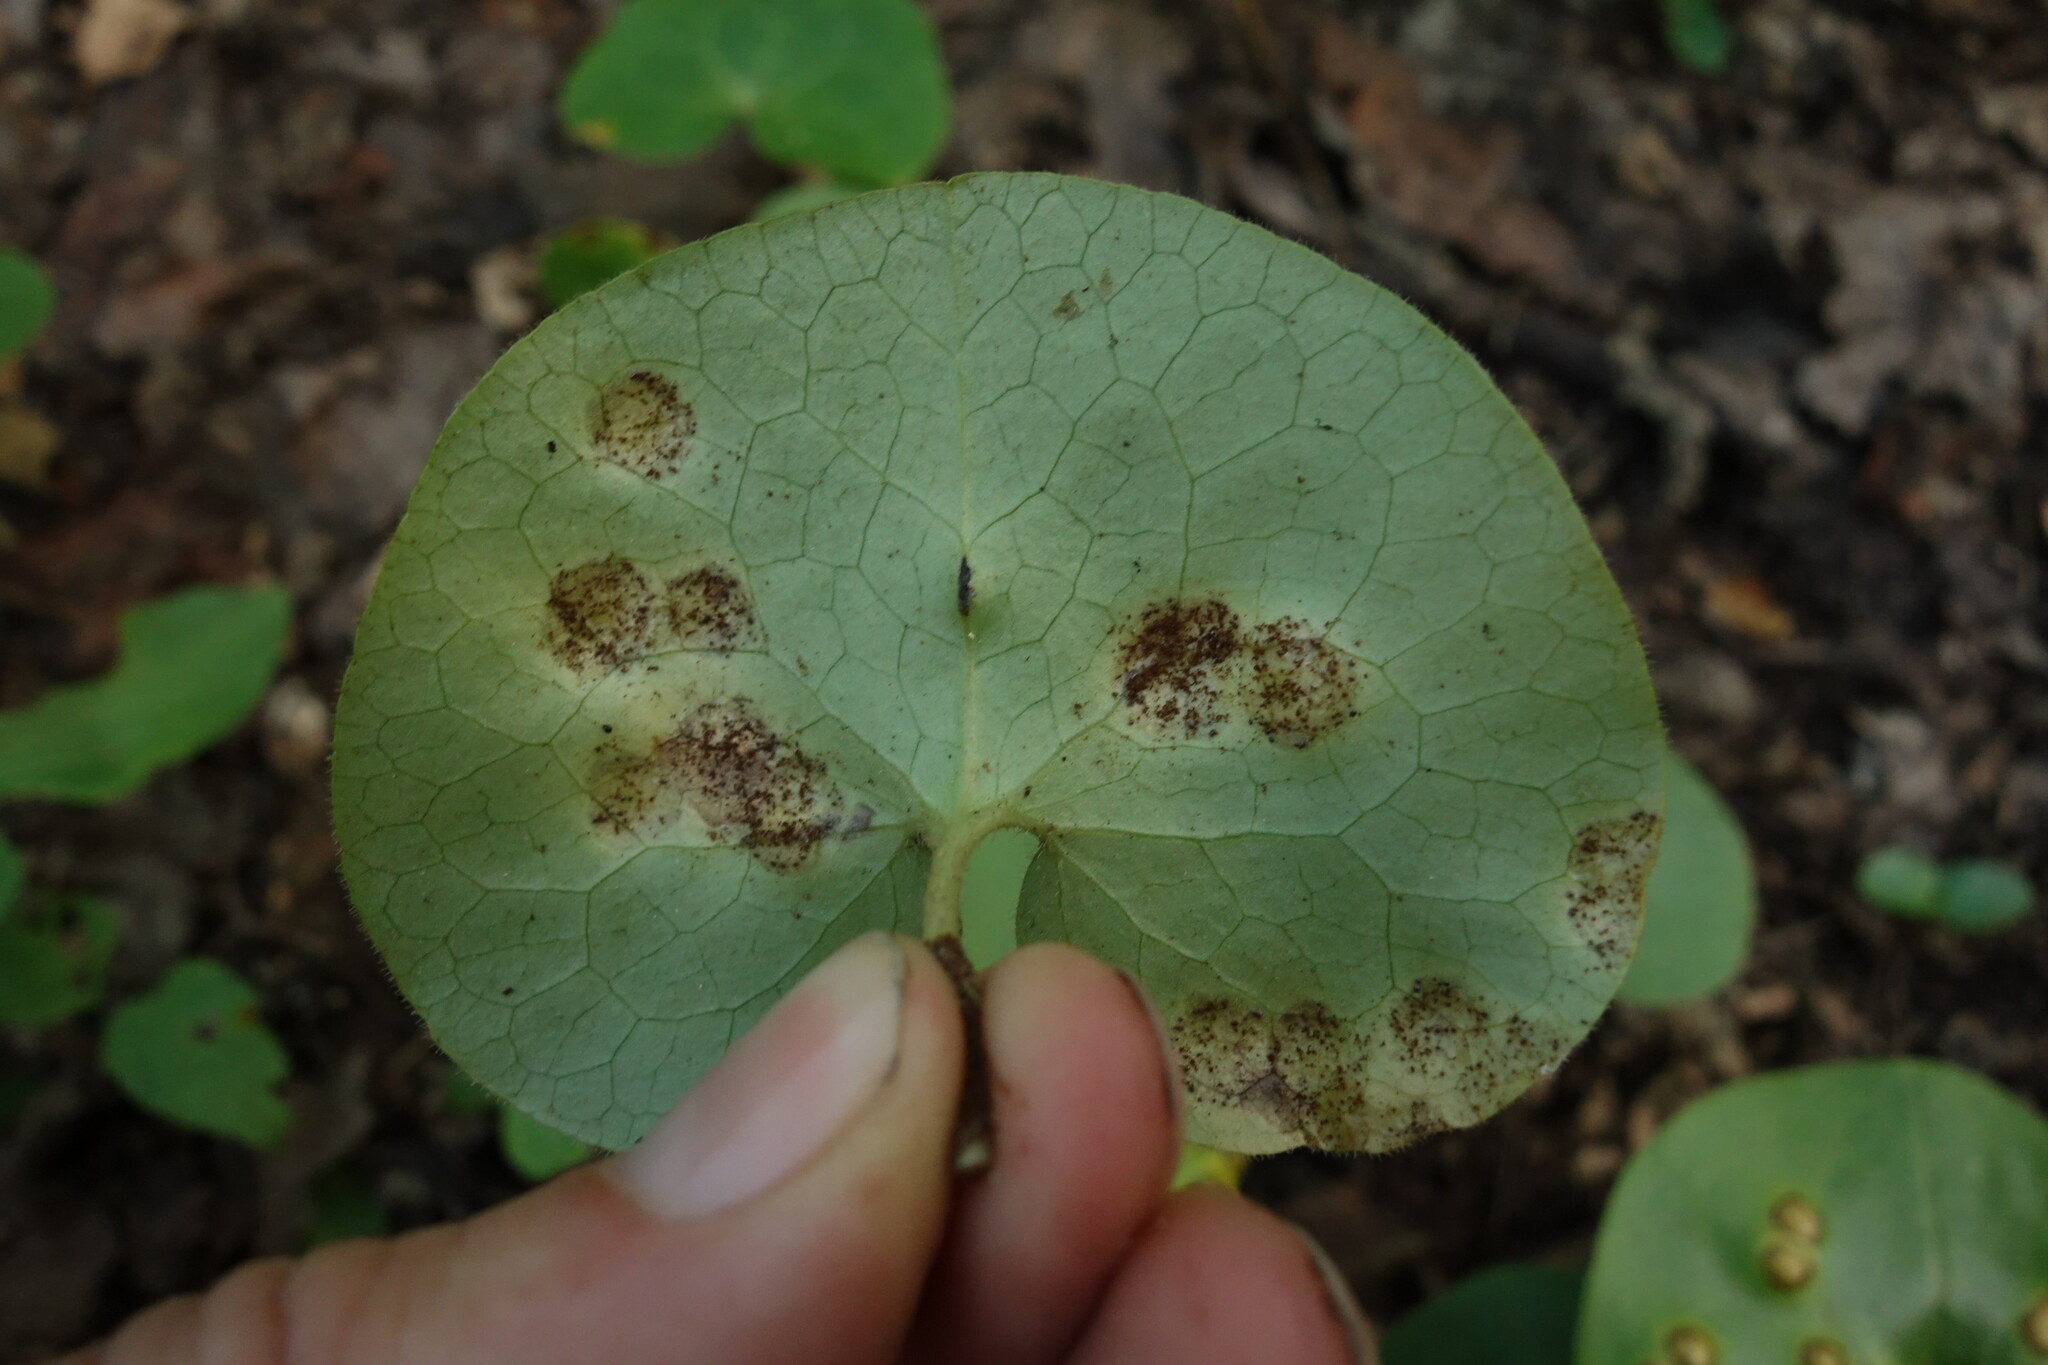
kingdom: Fungi
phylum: Basidiomycota
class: Pucciniomycetes
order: Pucciniales
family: Pucciniaceae
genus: Puccinia
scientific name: Puccinia asarina
